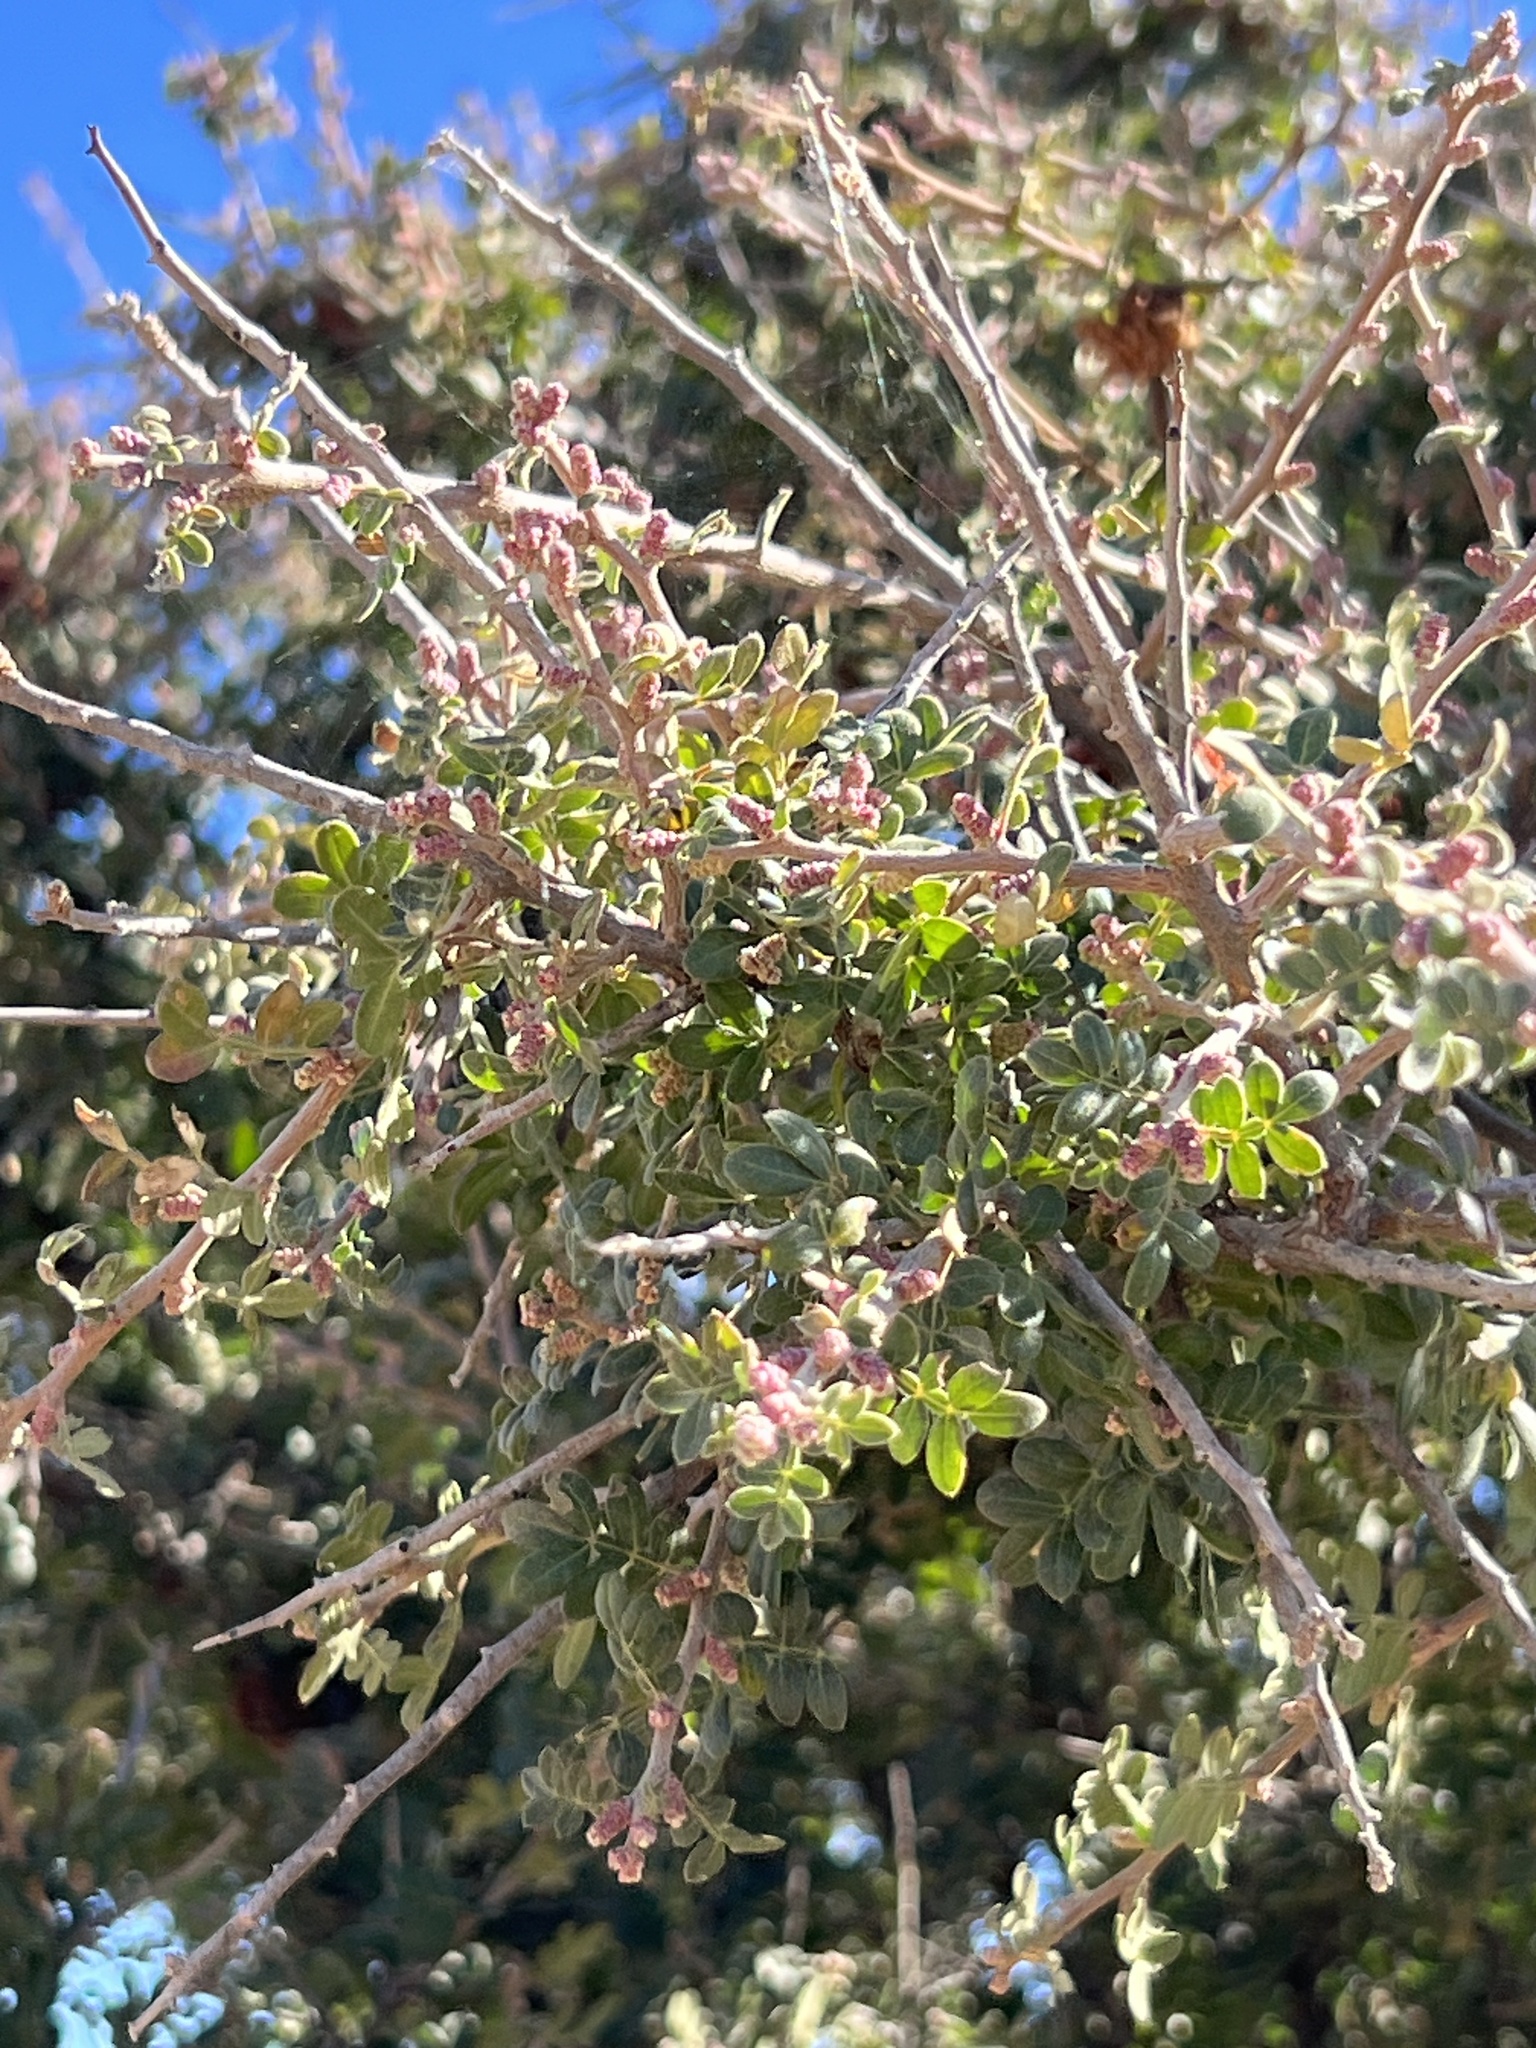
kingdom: Plantae
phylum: Tracheophyta
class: Magnoliopsida
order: Sapindales
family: Anacardiaceae
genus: Rhus
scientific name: Rhus microphylla
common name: Desert sumac
